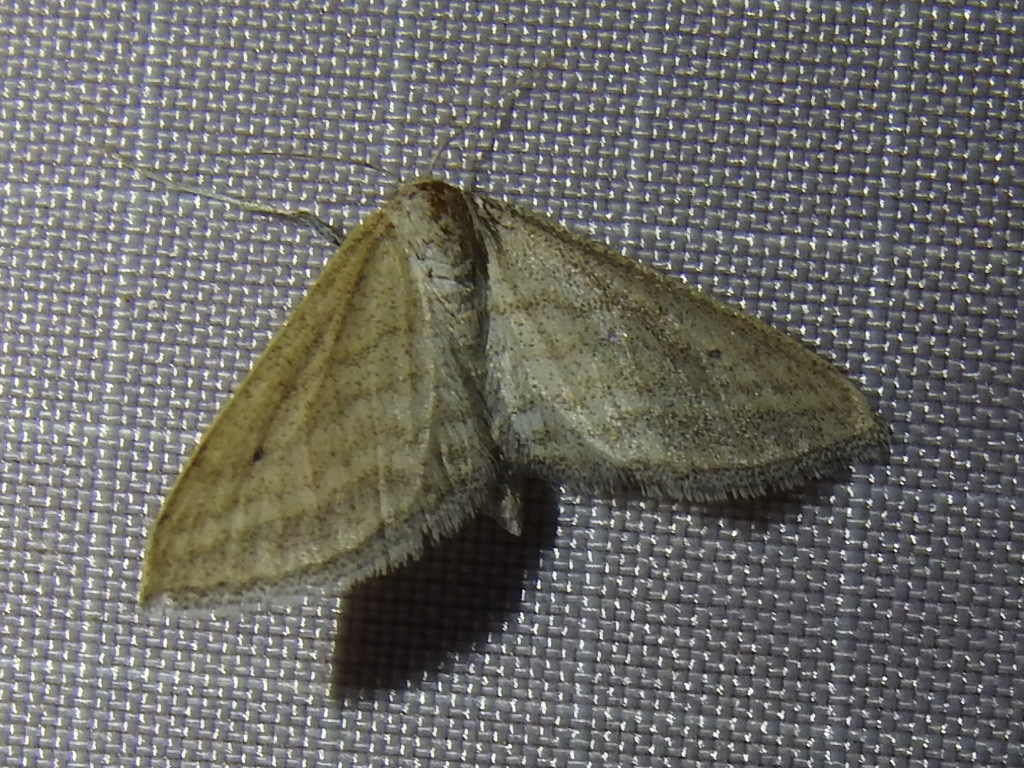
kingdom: Animalia
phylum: Arthropoda
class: Insecta
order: Lepidoptera
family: Geometridae
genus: Lobocleta
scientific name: Lobocleta plemyraria
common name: Straight-lined wave
